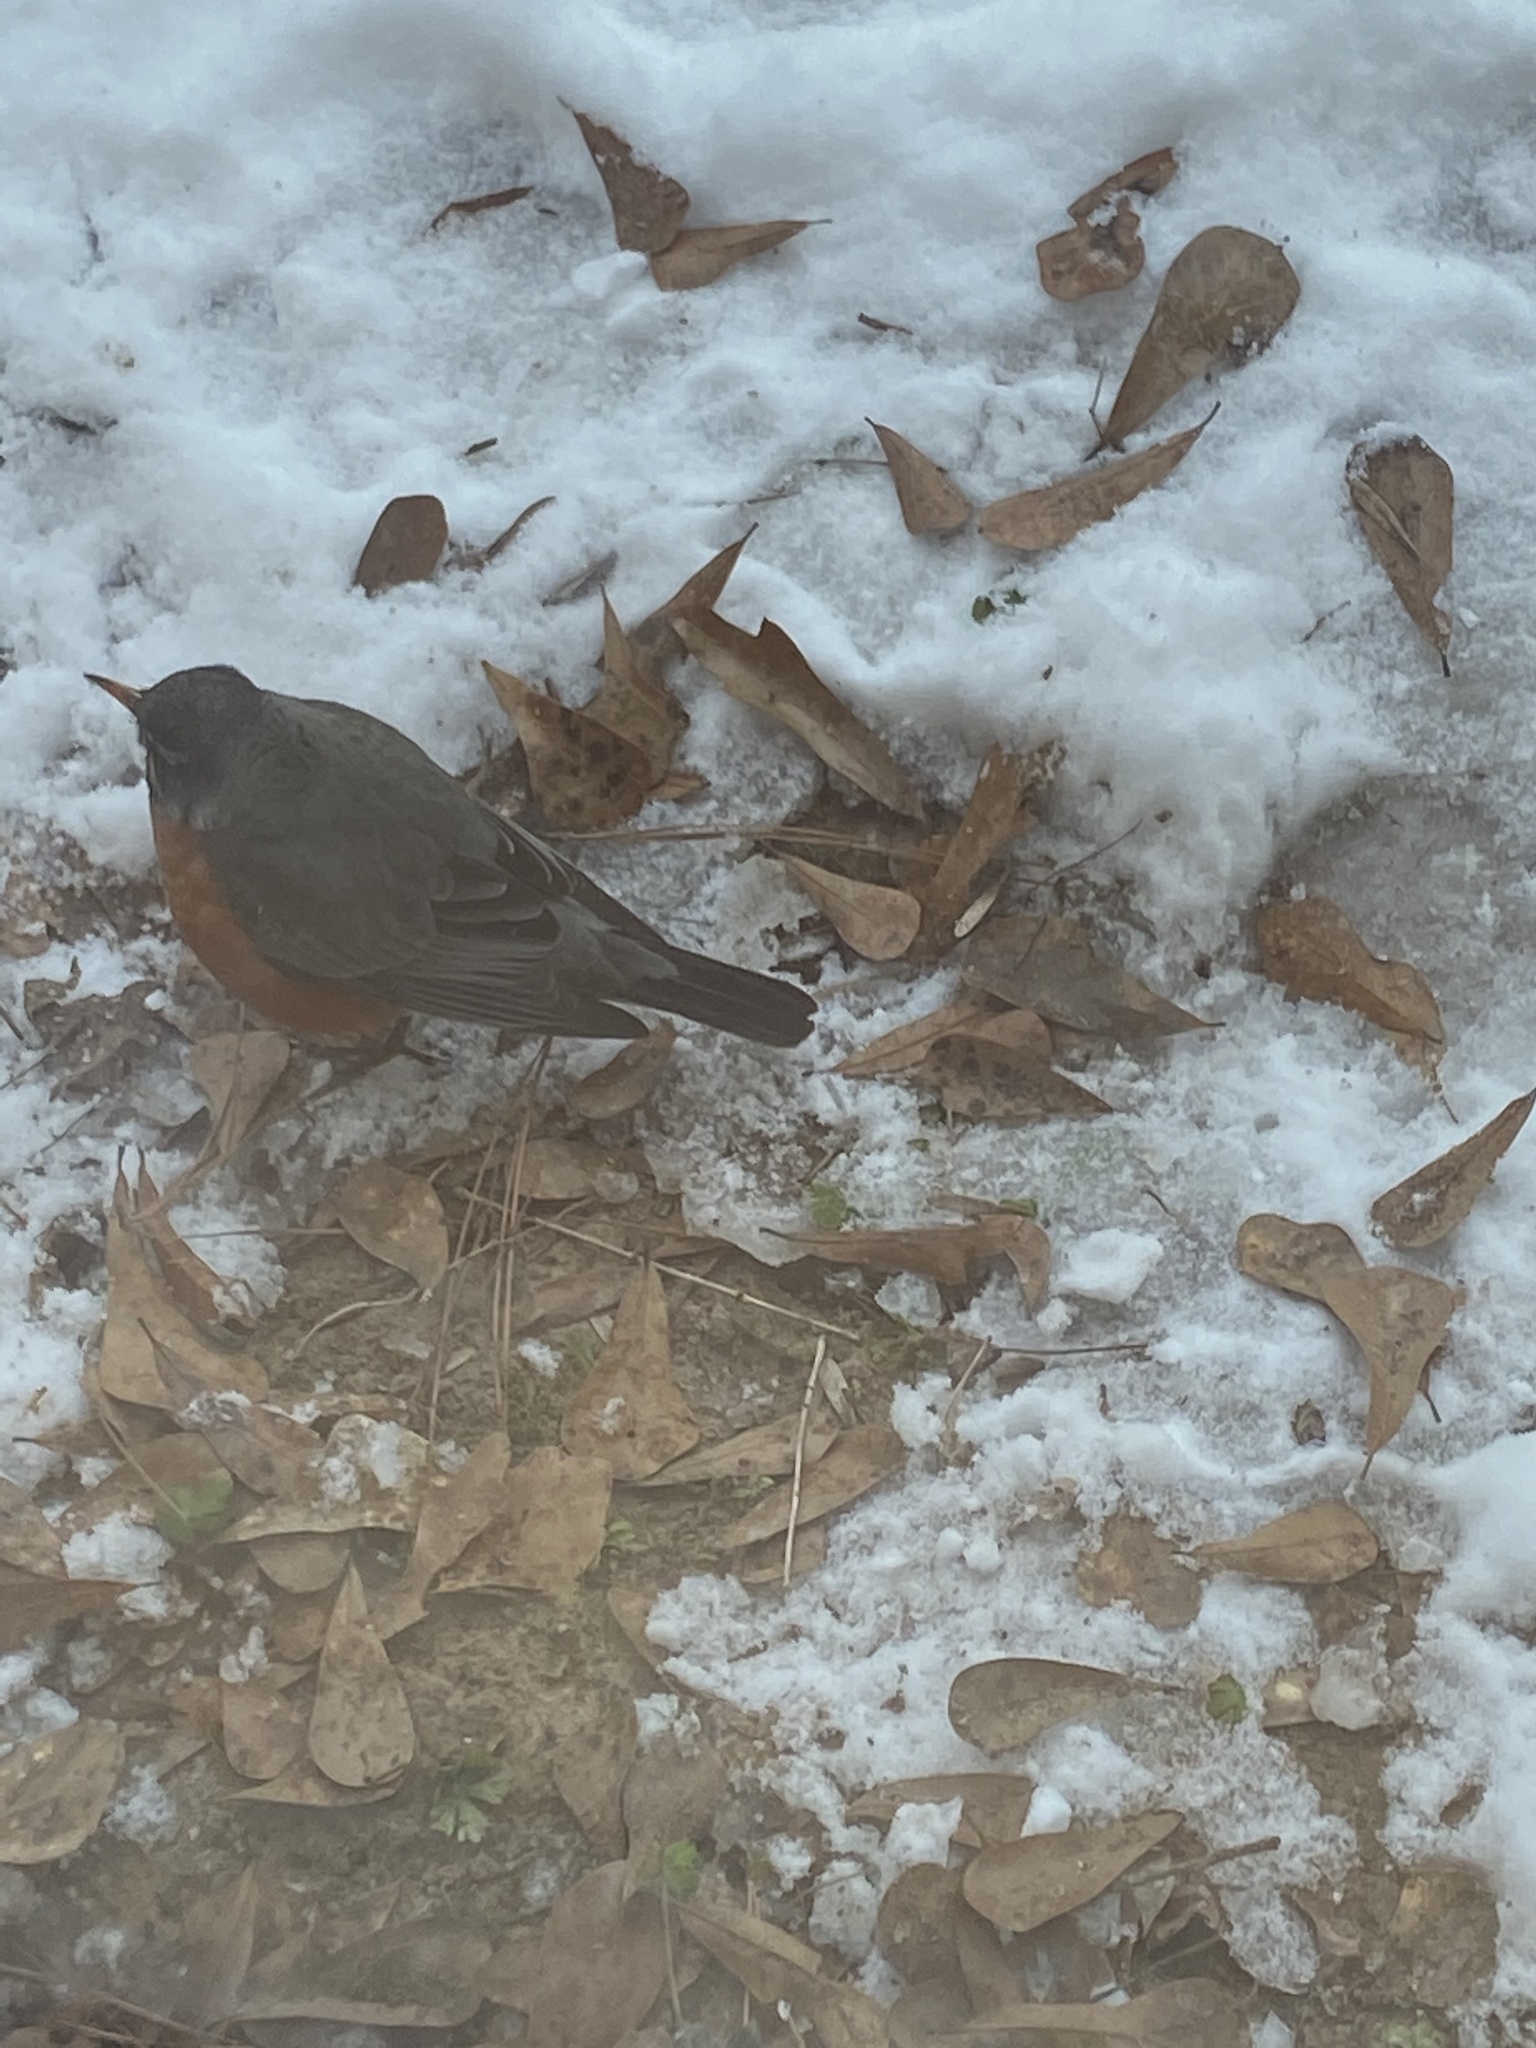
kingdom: Animalia
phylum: Chordata
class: Aves
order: Passeriformes
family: Turdidae
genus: Turdus
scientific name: Turdus migratorius
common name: American robin
